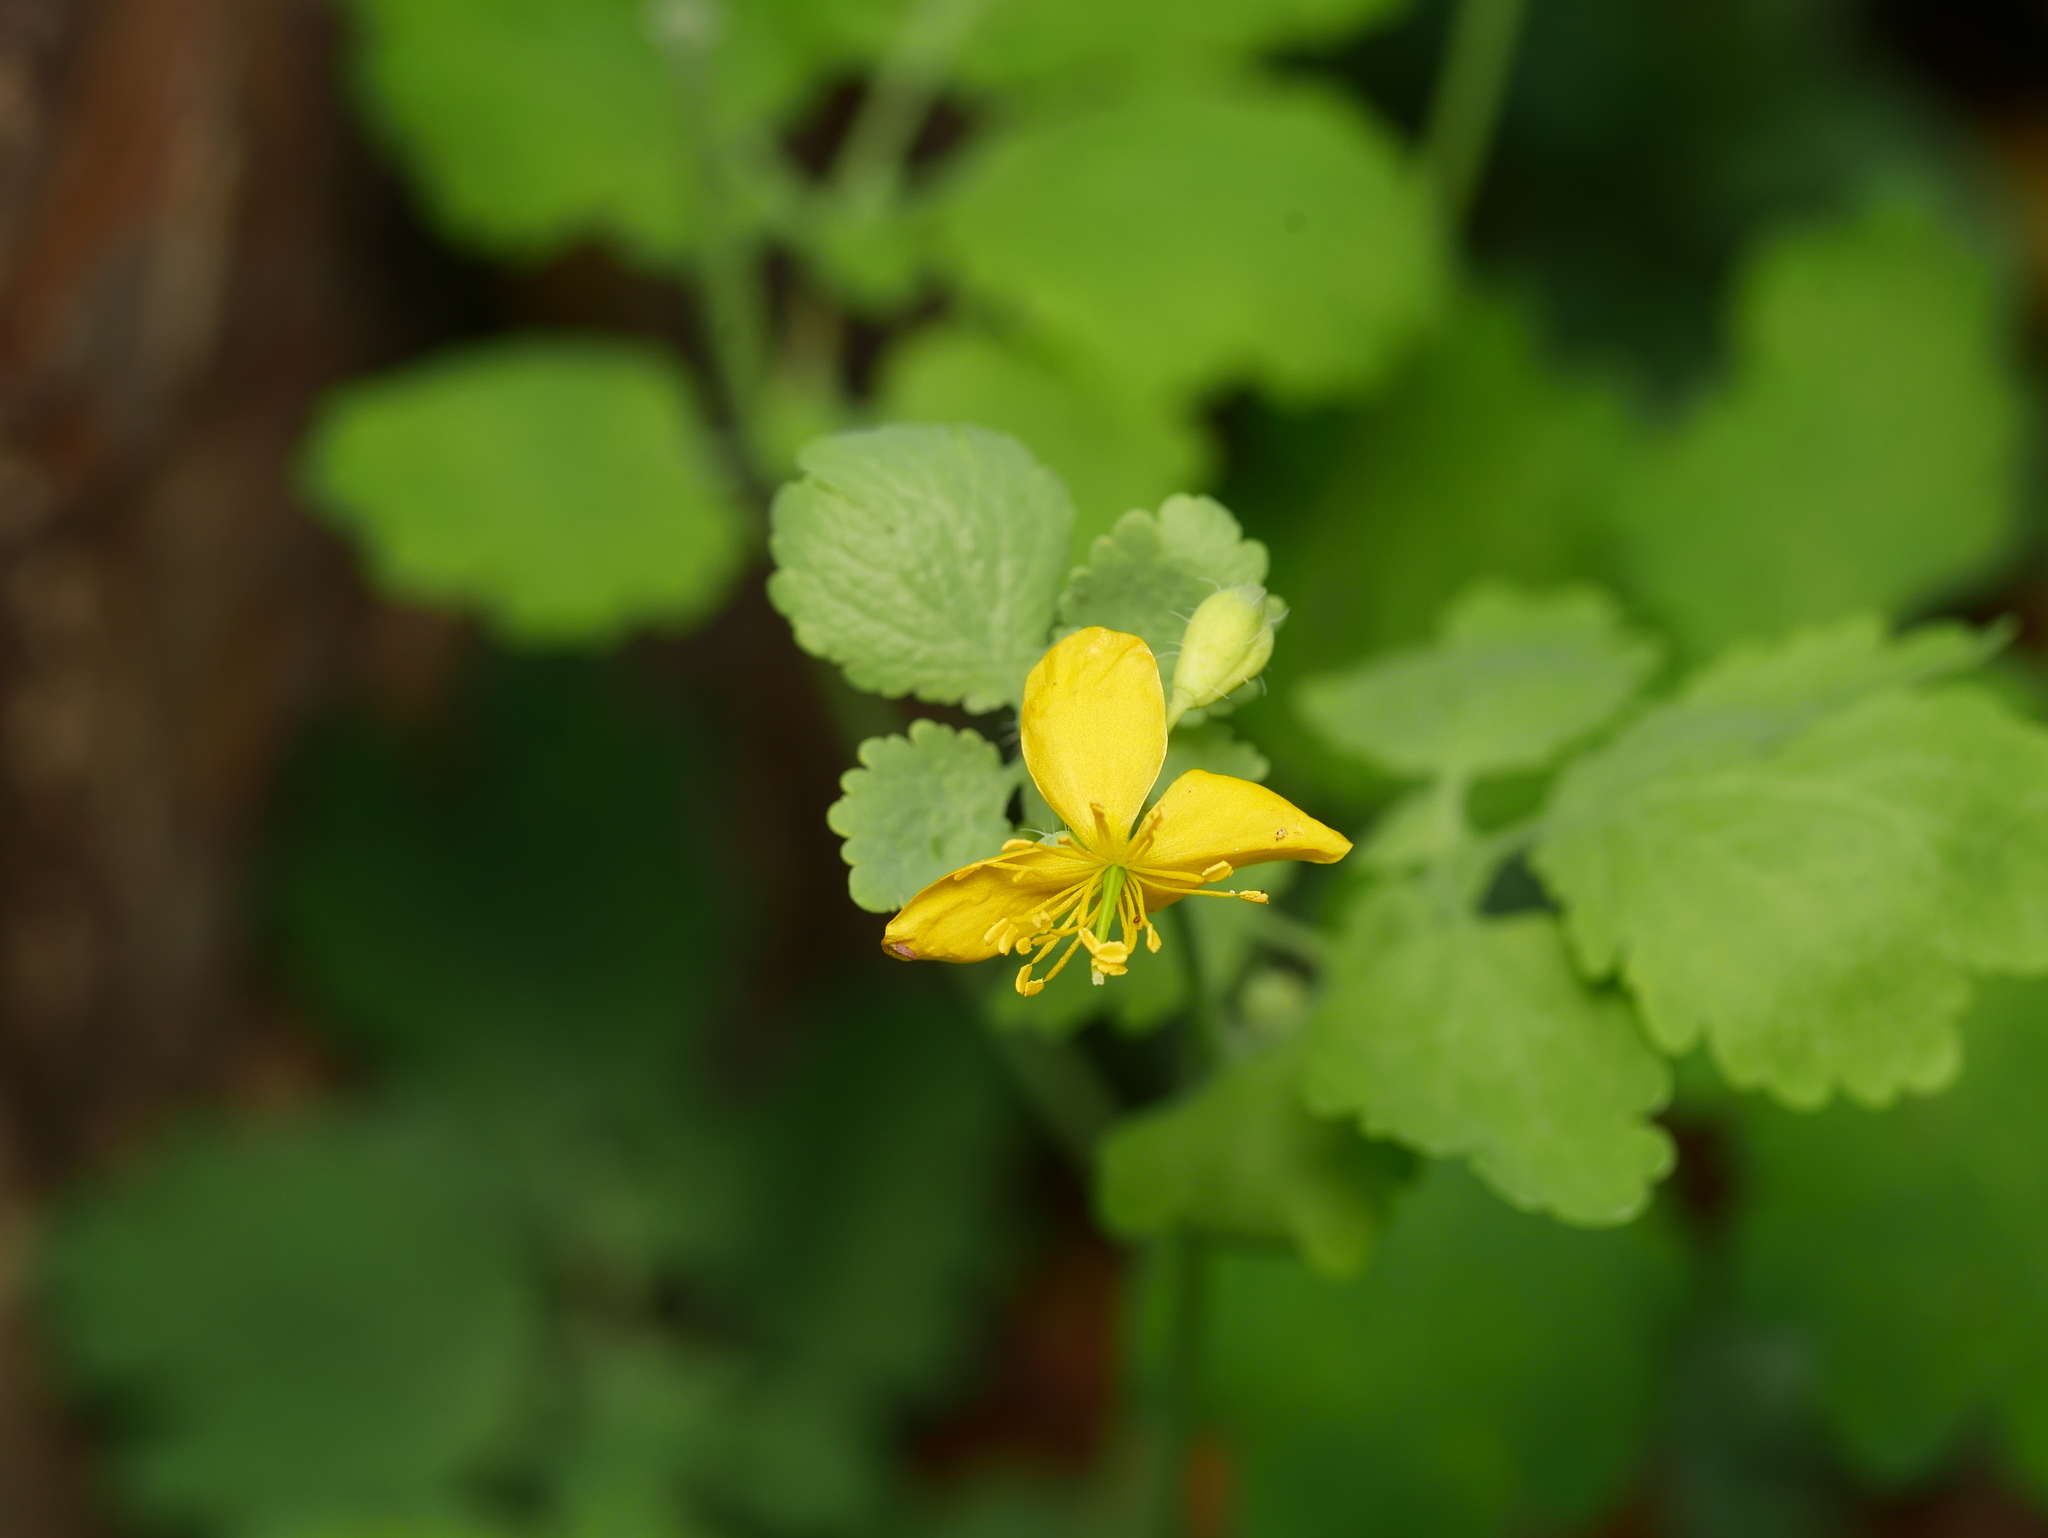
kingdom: Plantae
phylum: Tracheophyta
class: Magnoliopsida
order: Ranunculales
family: Papaveraceae
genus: Chelidonium
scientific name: Chelidonium majus
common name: Greater celandine
